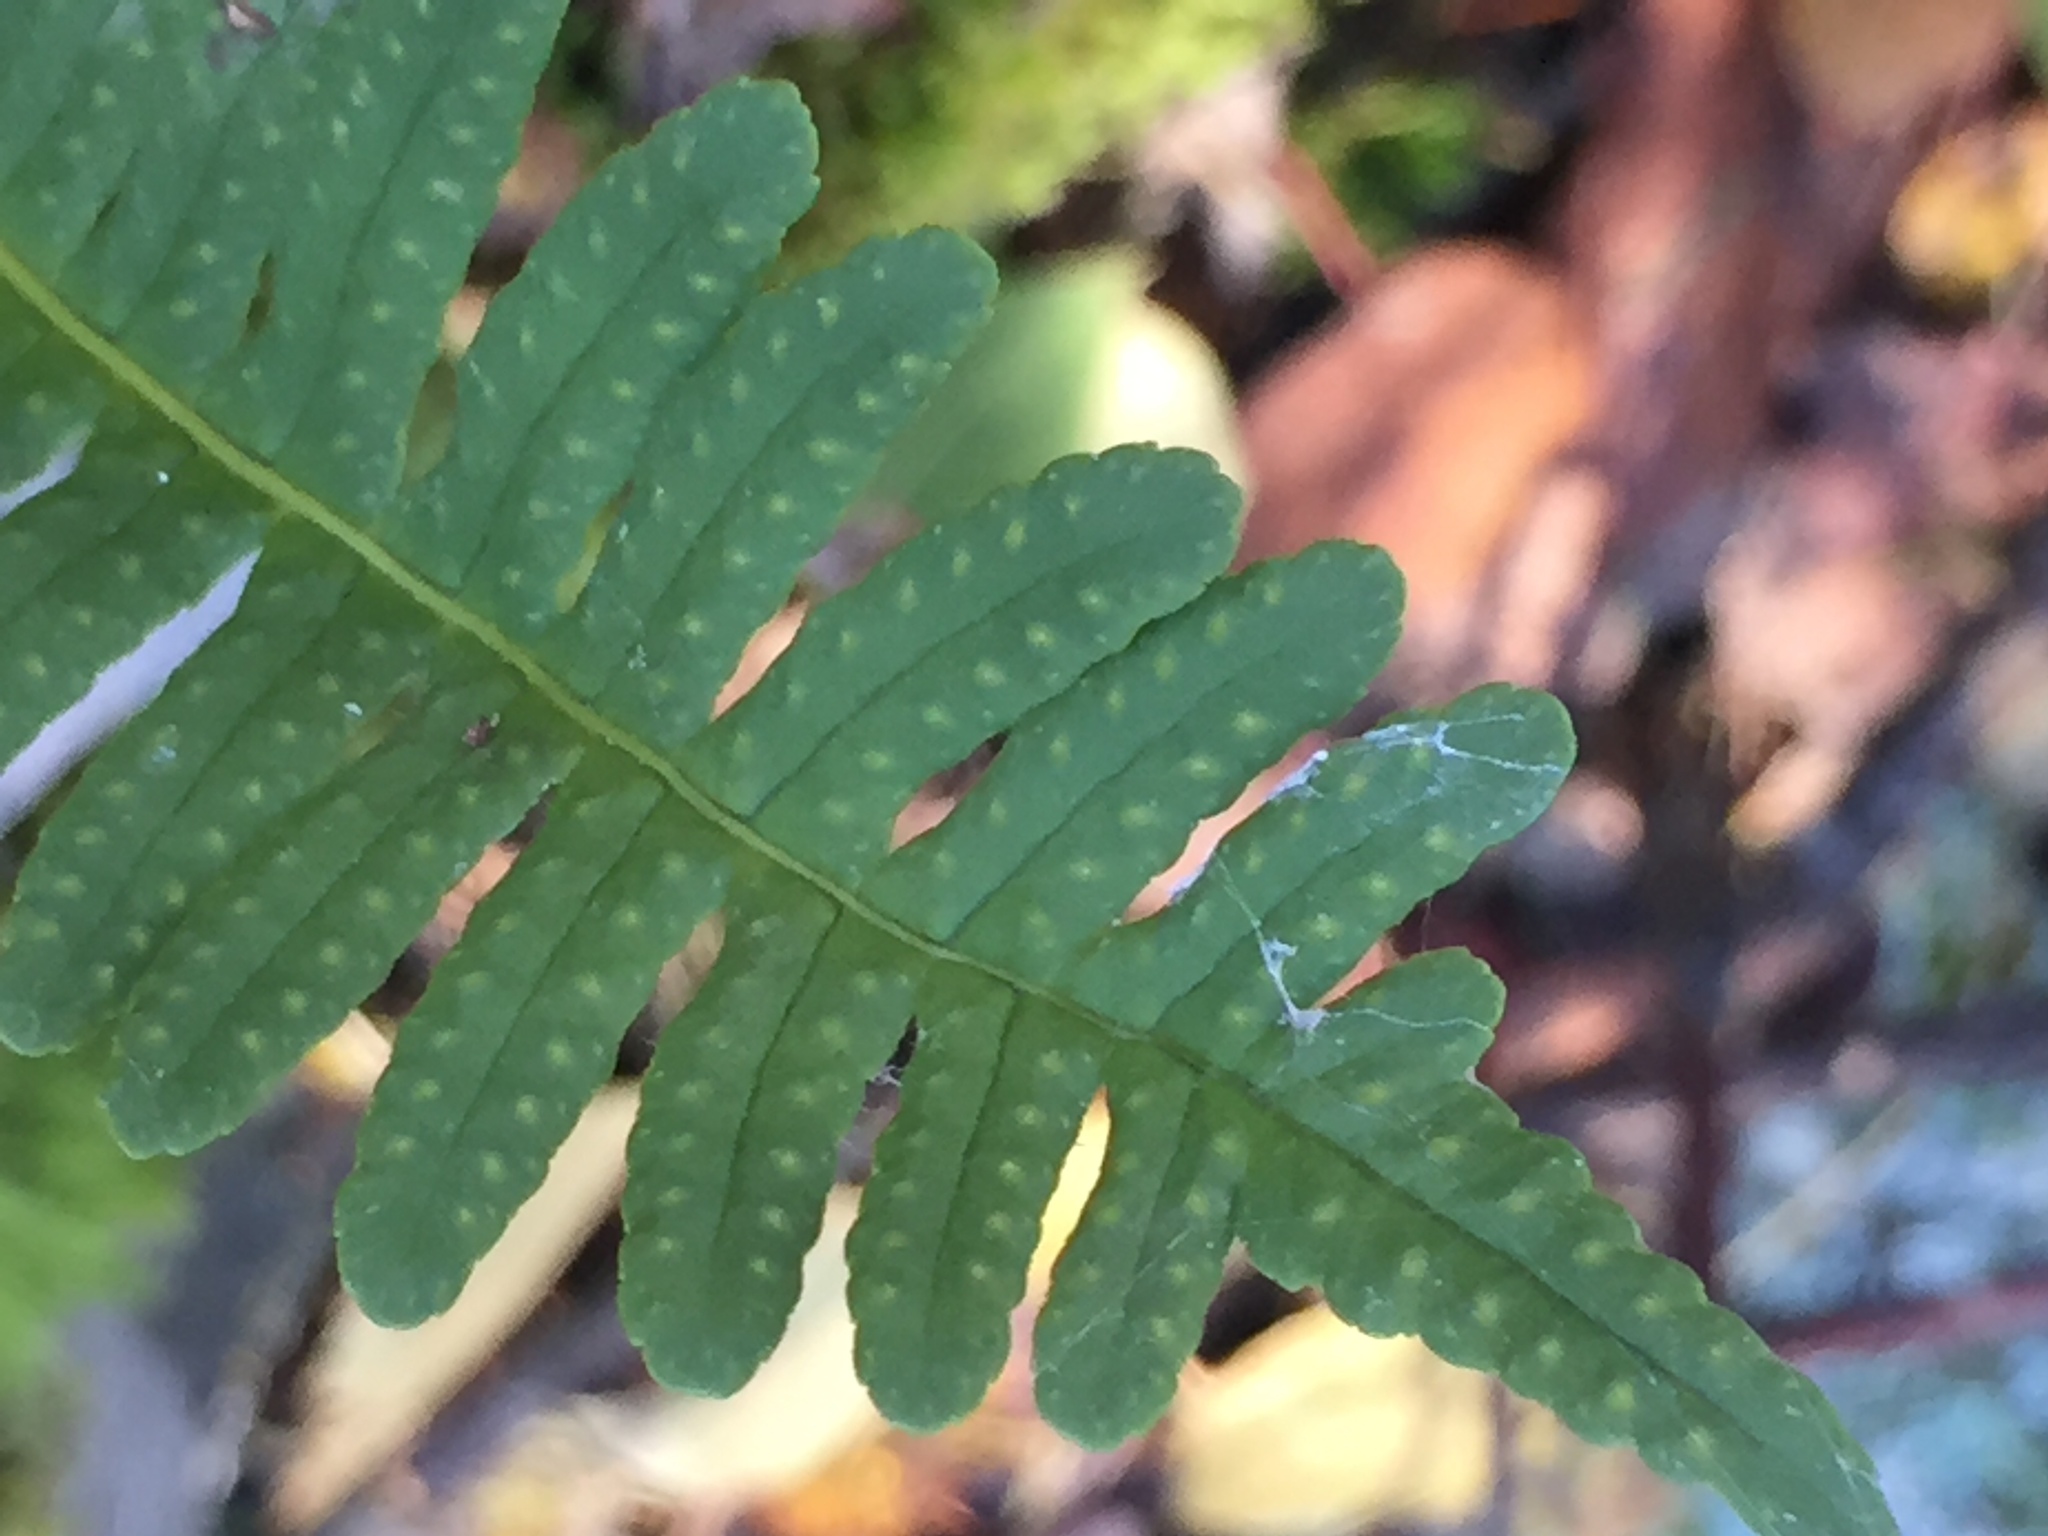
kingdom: Plantae
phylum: Tracheophyta
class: Polypodiopsida
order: Polypodiales
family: Polypodiaceae
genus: Polypodium
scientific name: Polypodium virginianum
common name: American wall fern
